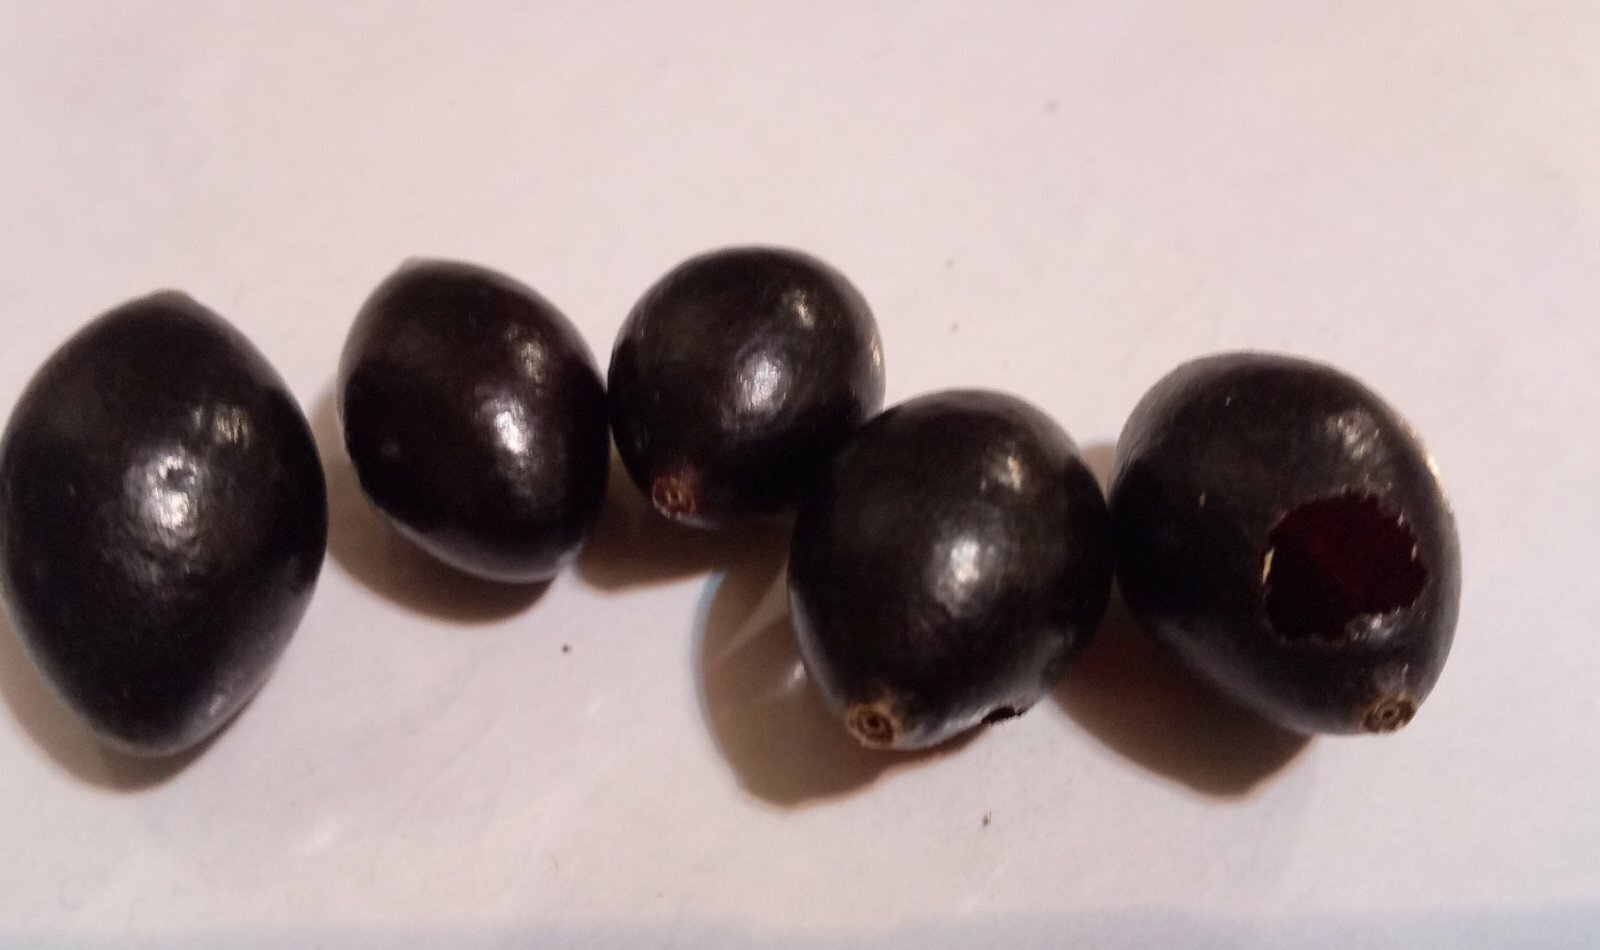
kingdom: Animalia
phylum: Arthropoda
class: Insecta
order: Hymenoptera
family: Masaridae
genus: Polochrum
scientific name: Polochrum repandum
